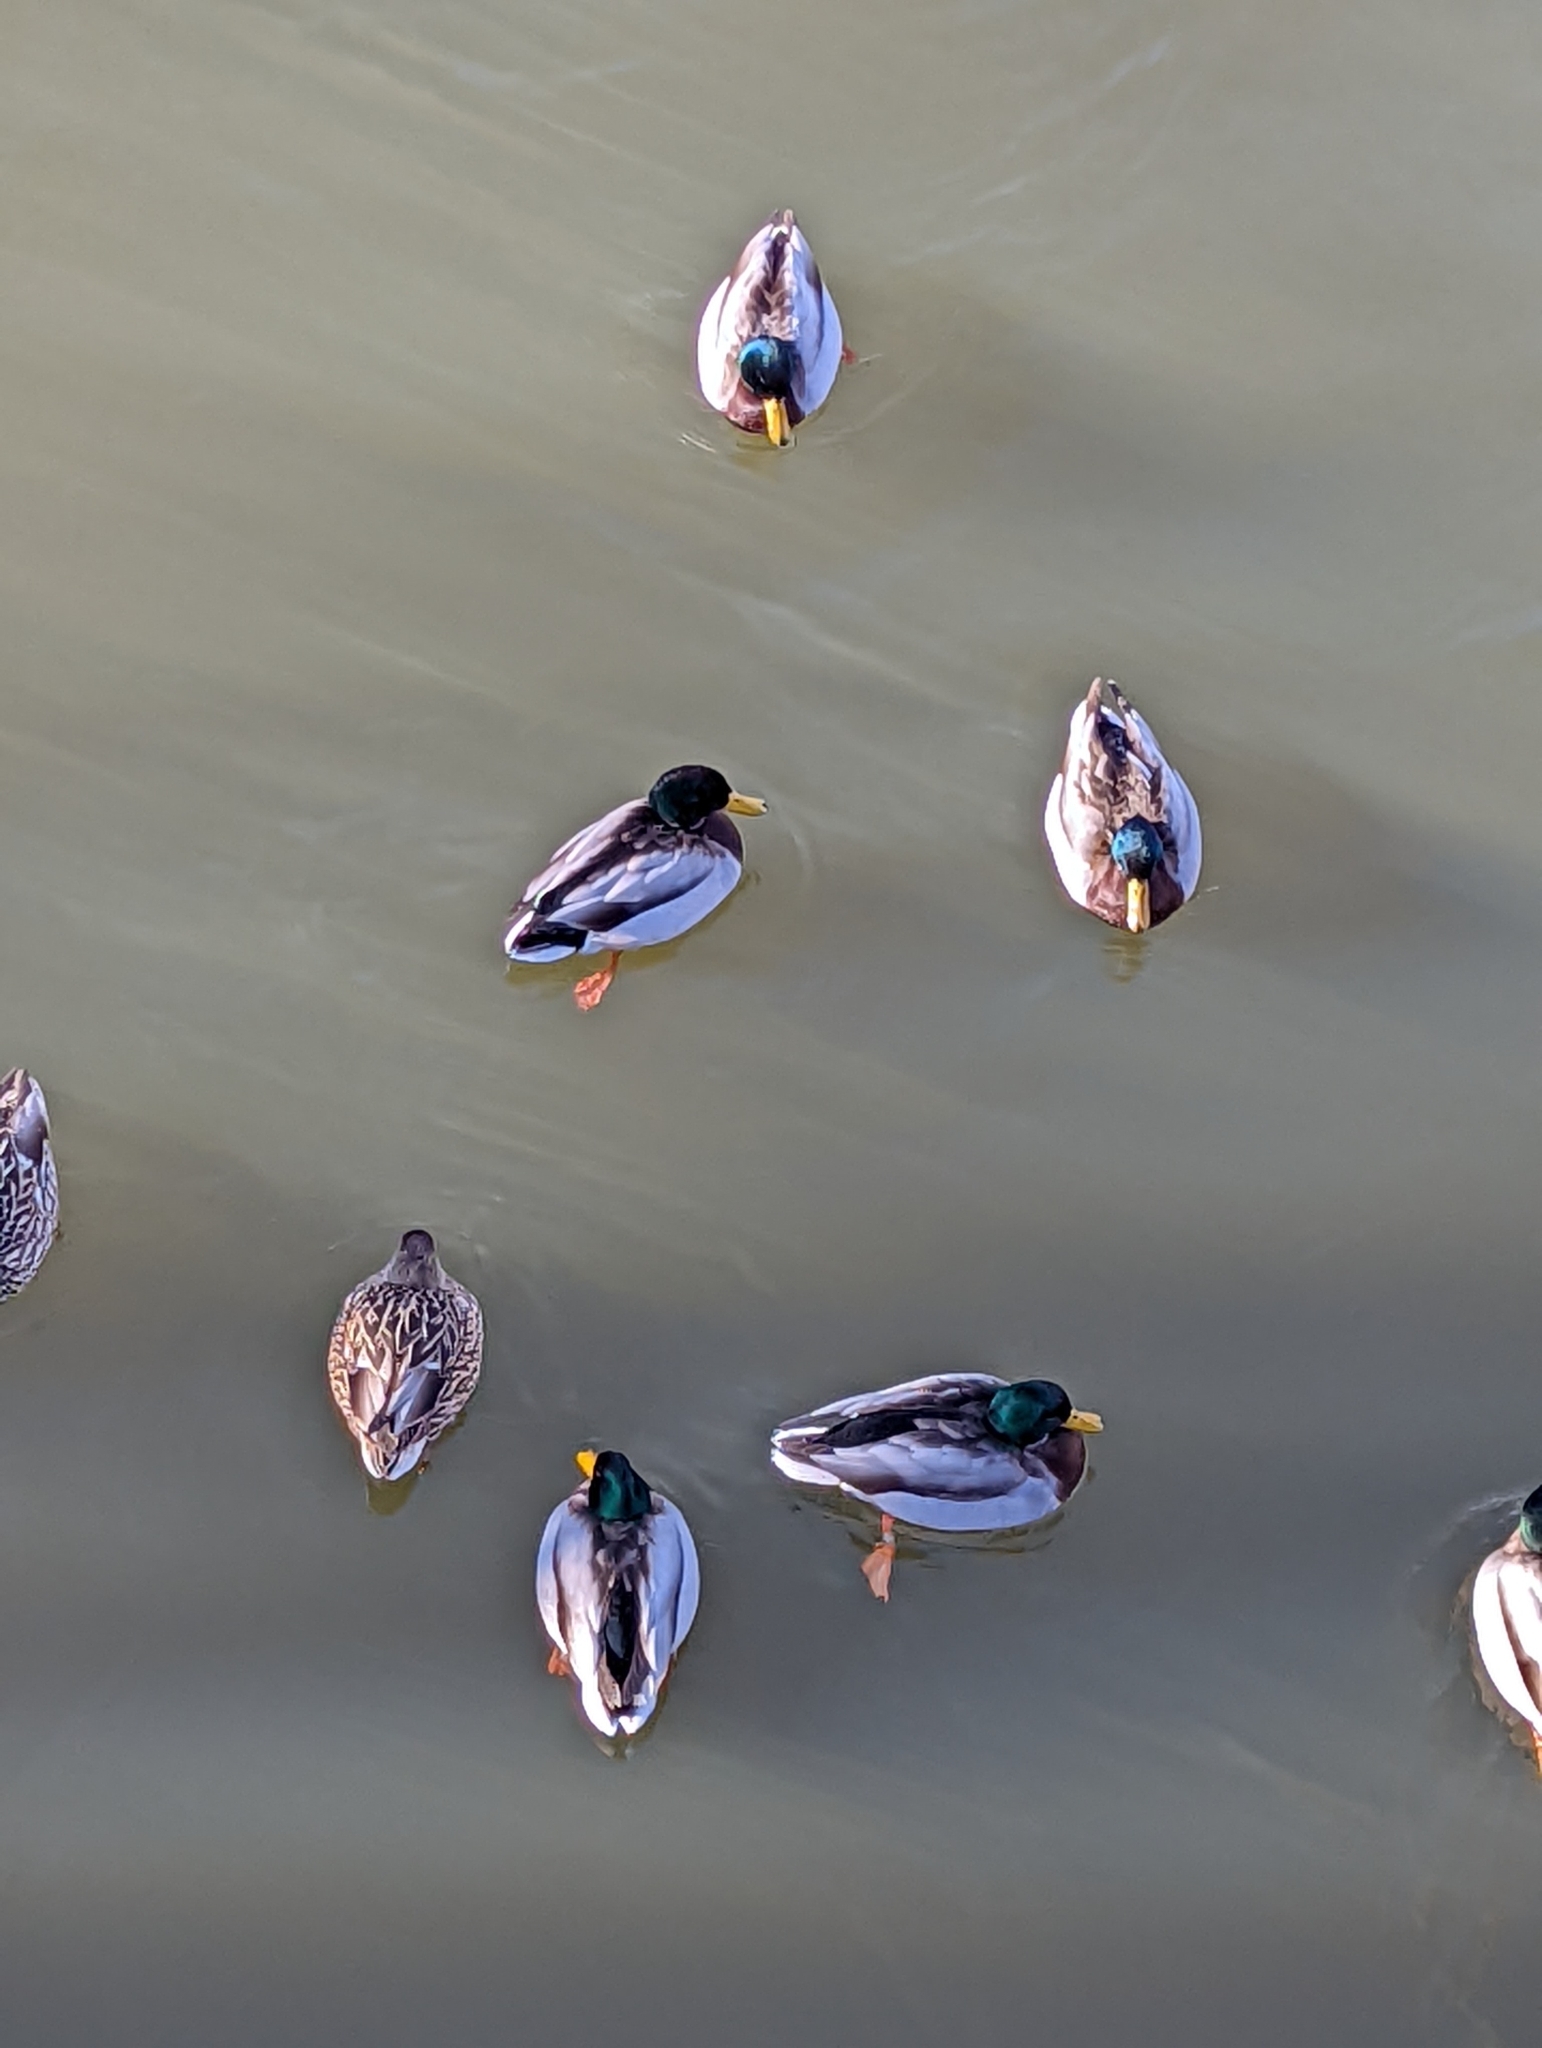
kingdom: Animalia
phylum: Chordata
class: Aves
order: Anseriformes
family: Anatidae
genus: Anas
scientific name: Anas platyrhynchos
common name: Mallard
